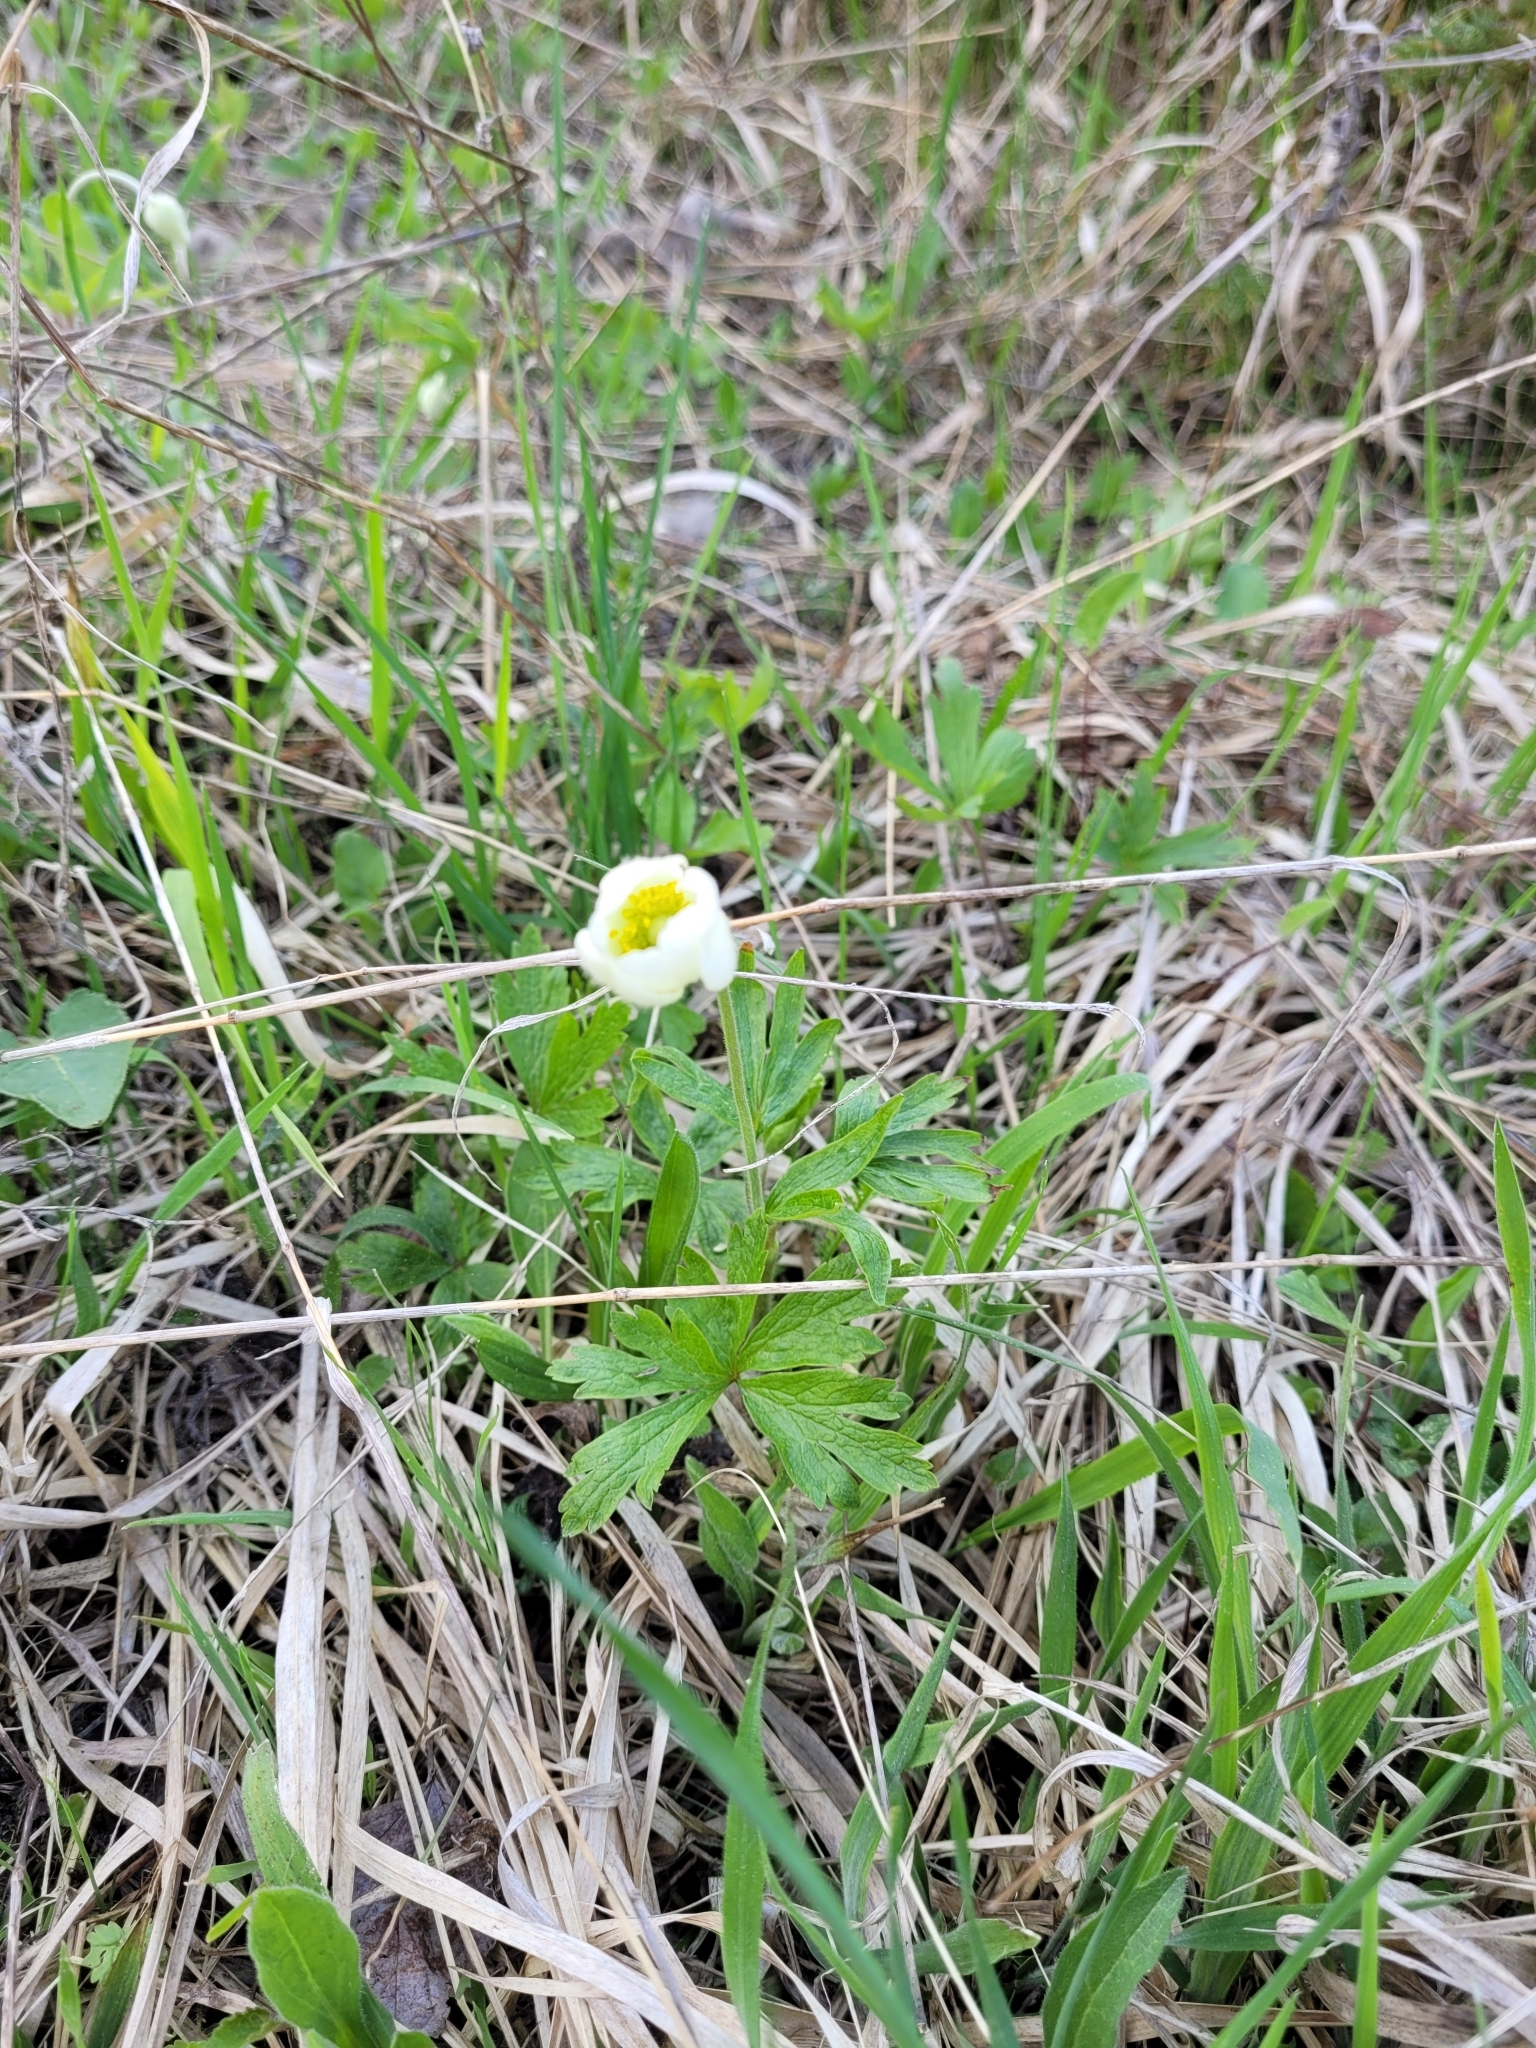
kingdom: Plantae
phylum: Tracheophyta
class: Magnoliopsida
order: Ranunculales
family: Ranunculaceae
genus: Anemone
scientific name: Anemone sylvestris
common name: Snowdrop anemone
